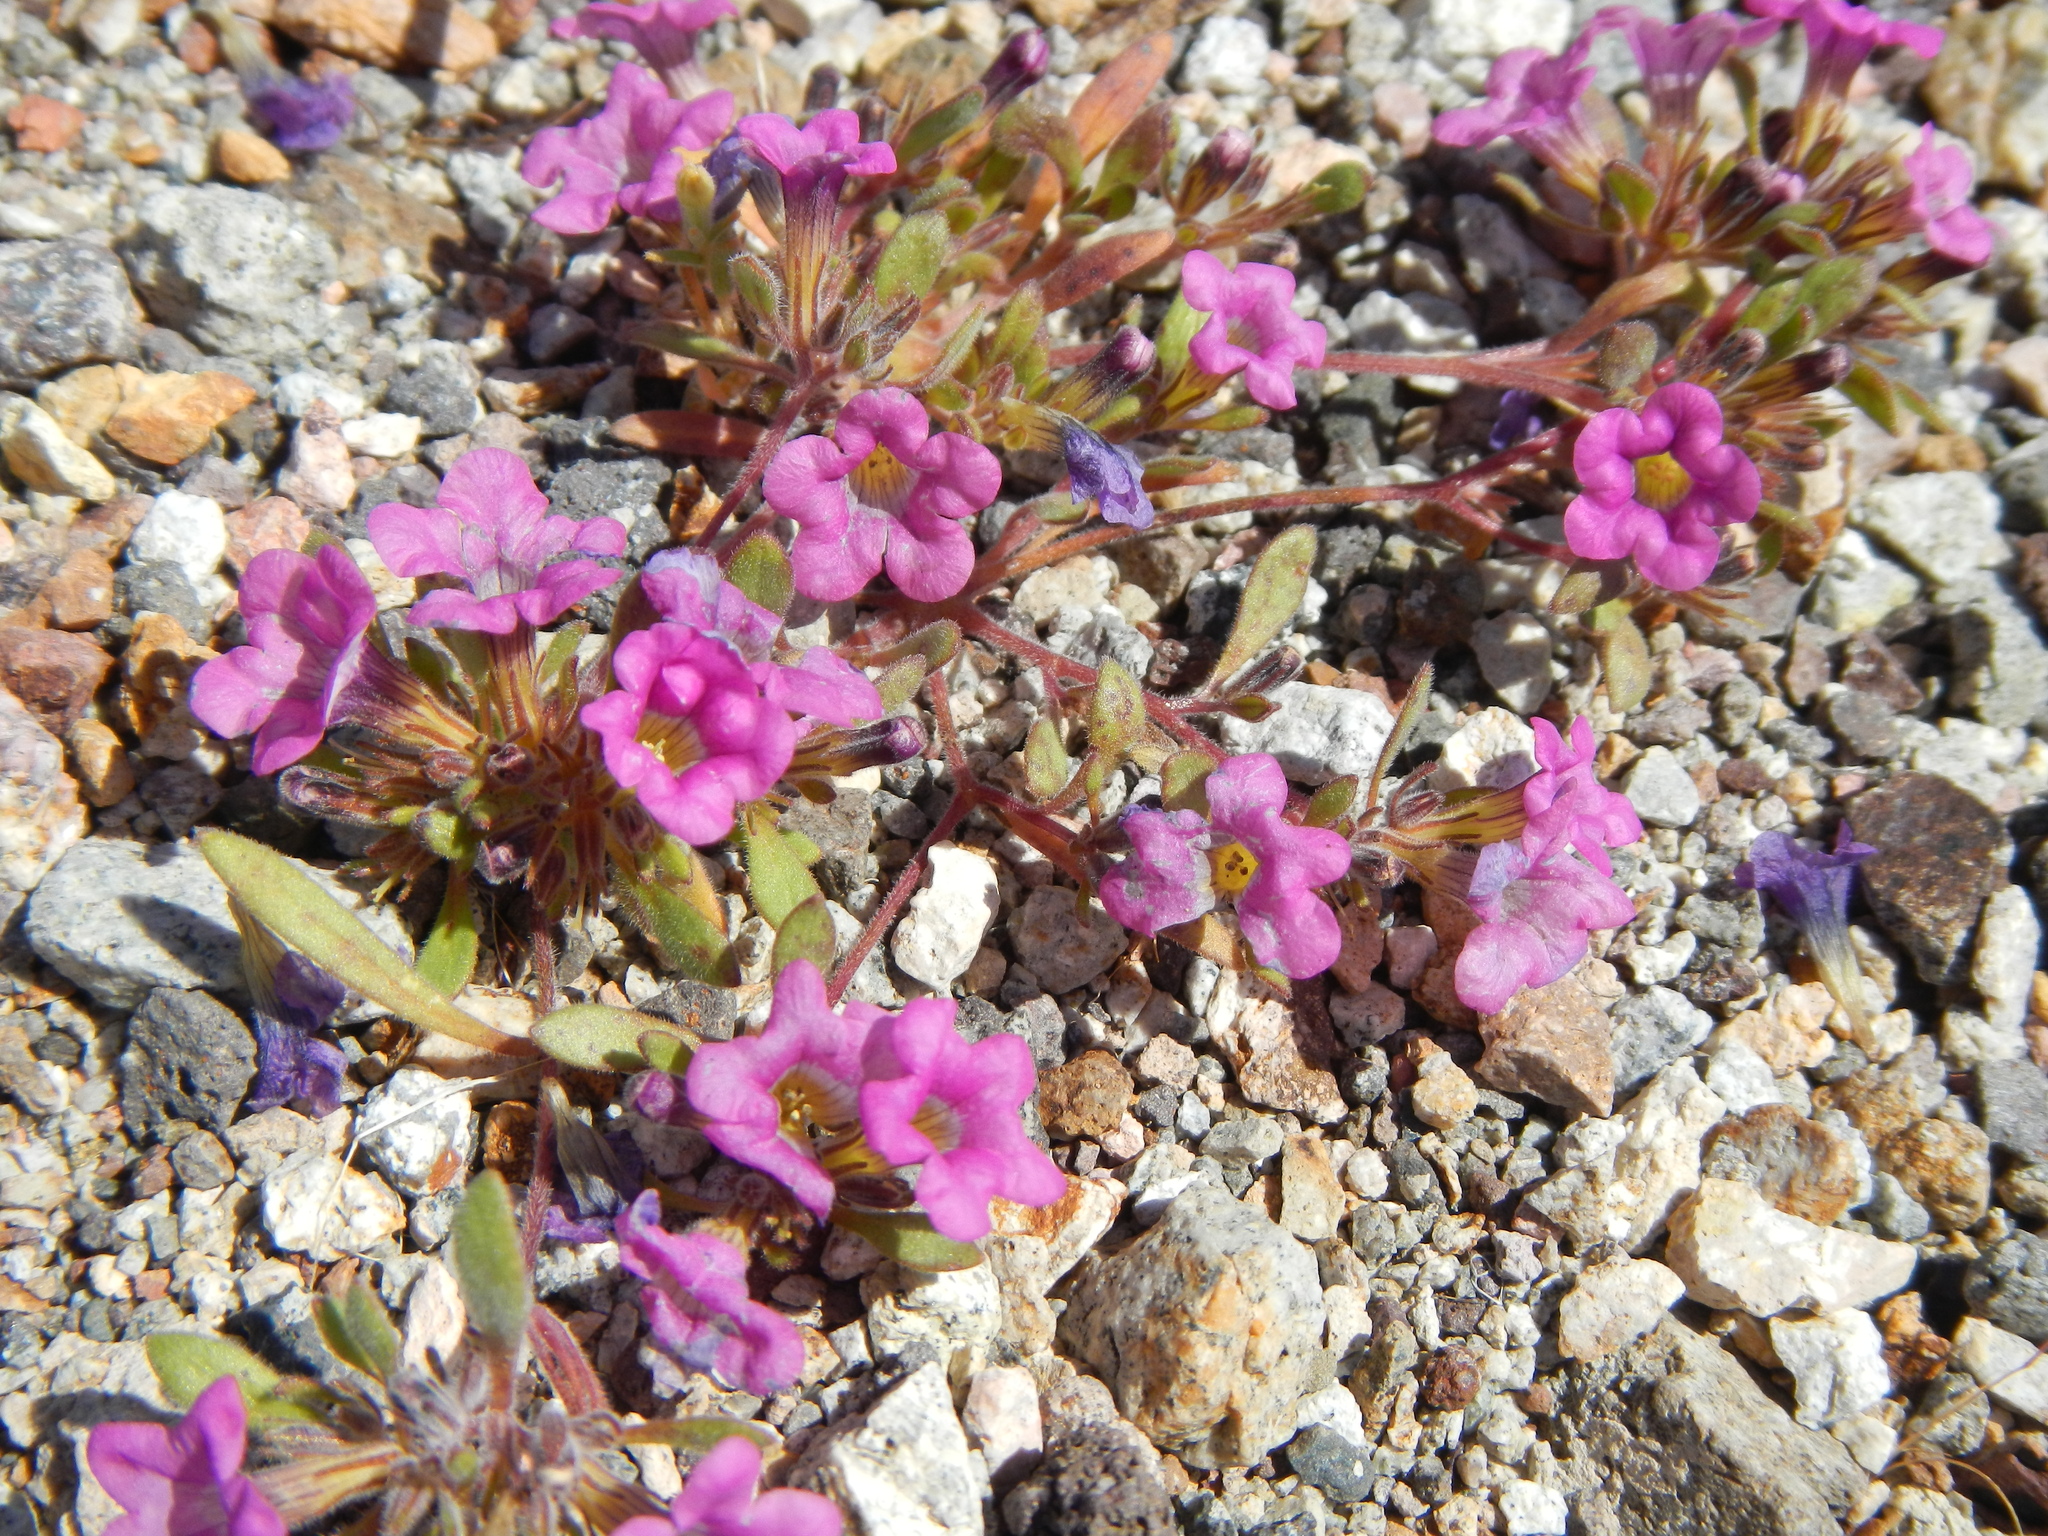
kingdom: Plantae
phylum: Tracheophyta
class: Magnoliopsida
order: Boraginales
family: Namaceae
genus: Nama
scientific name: Nama demissa
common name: Leafy nama
